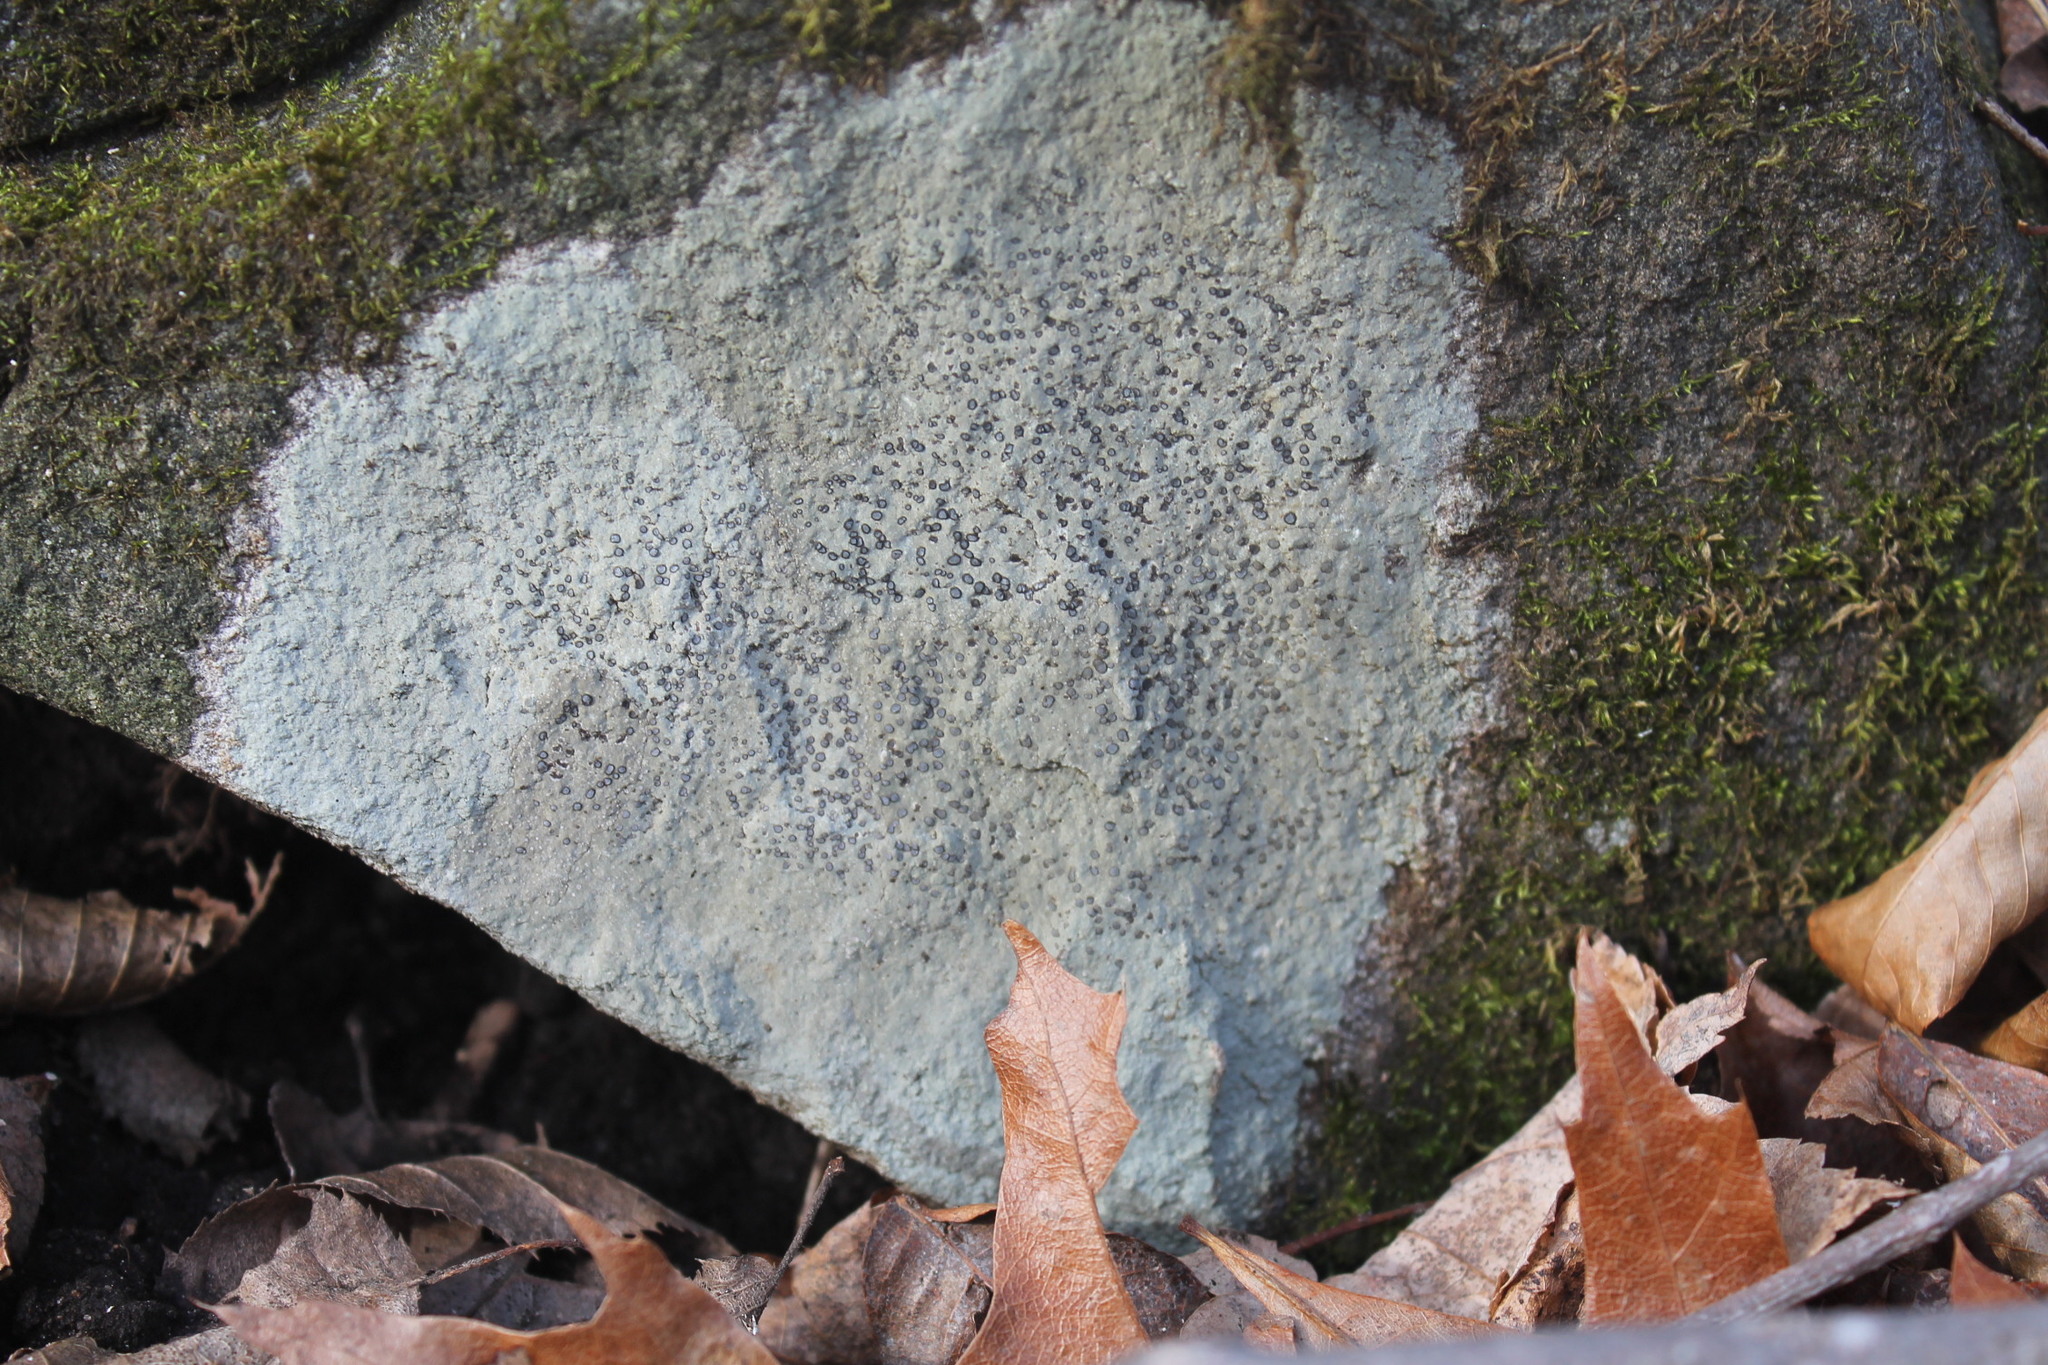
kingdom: Fungi
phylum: Ascomycota
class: Lecanoromycetes
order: Lecideales
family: Lecideaceae
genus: Porpidia
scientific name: Porpidia albocaerulescens
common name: Smokey-eyed boulder lichen
